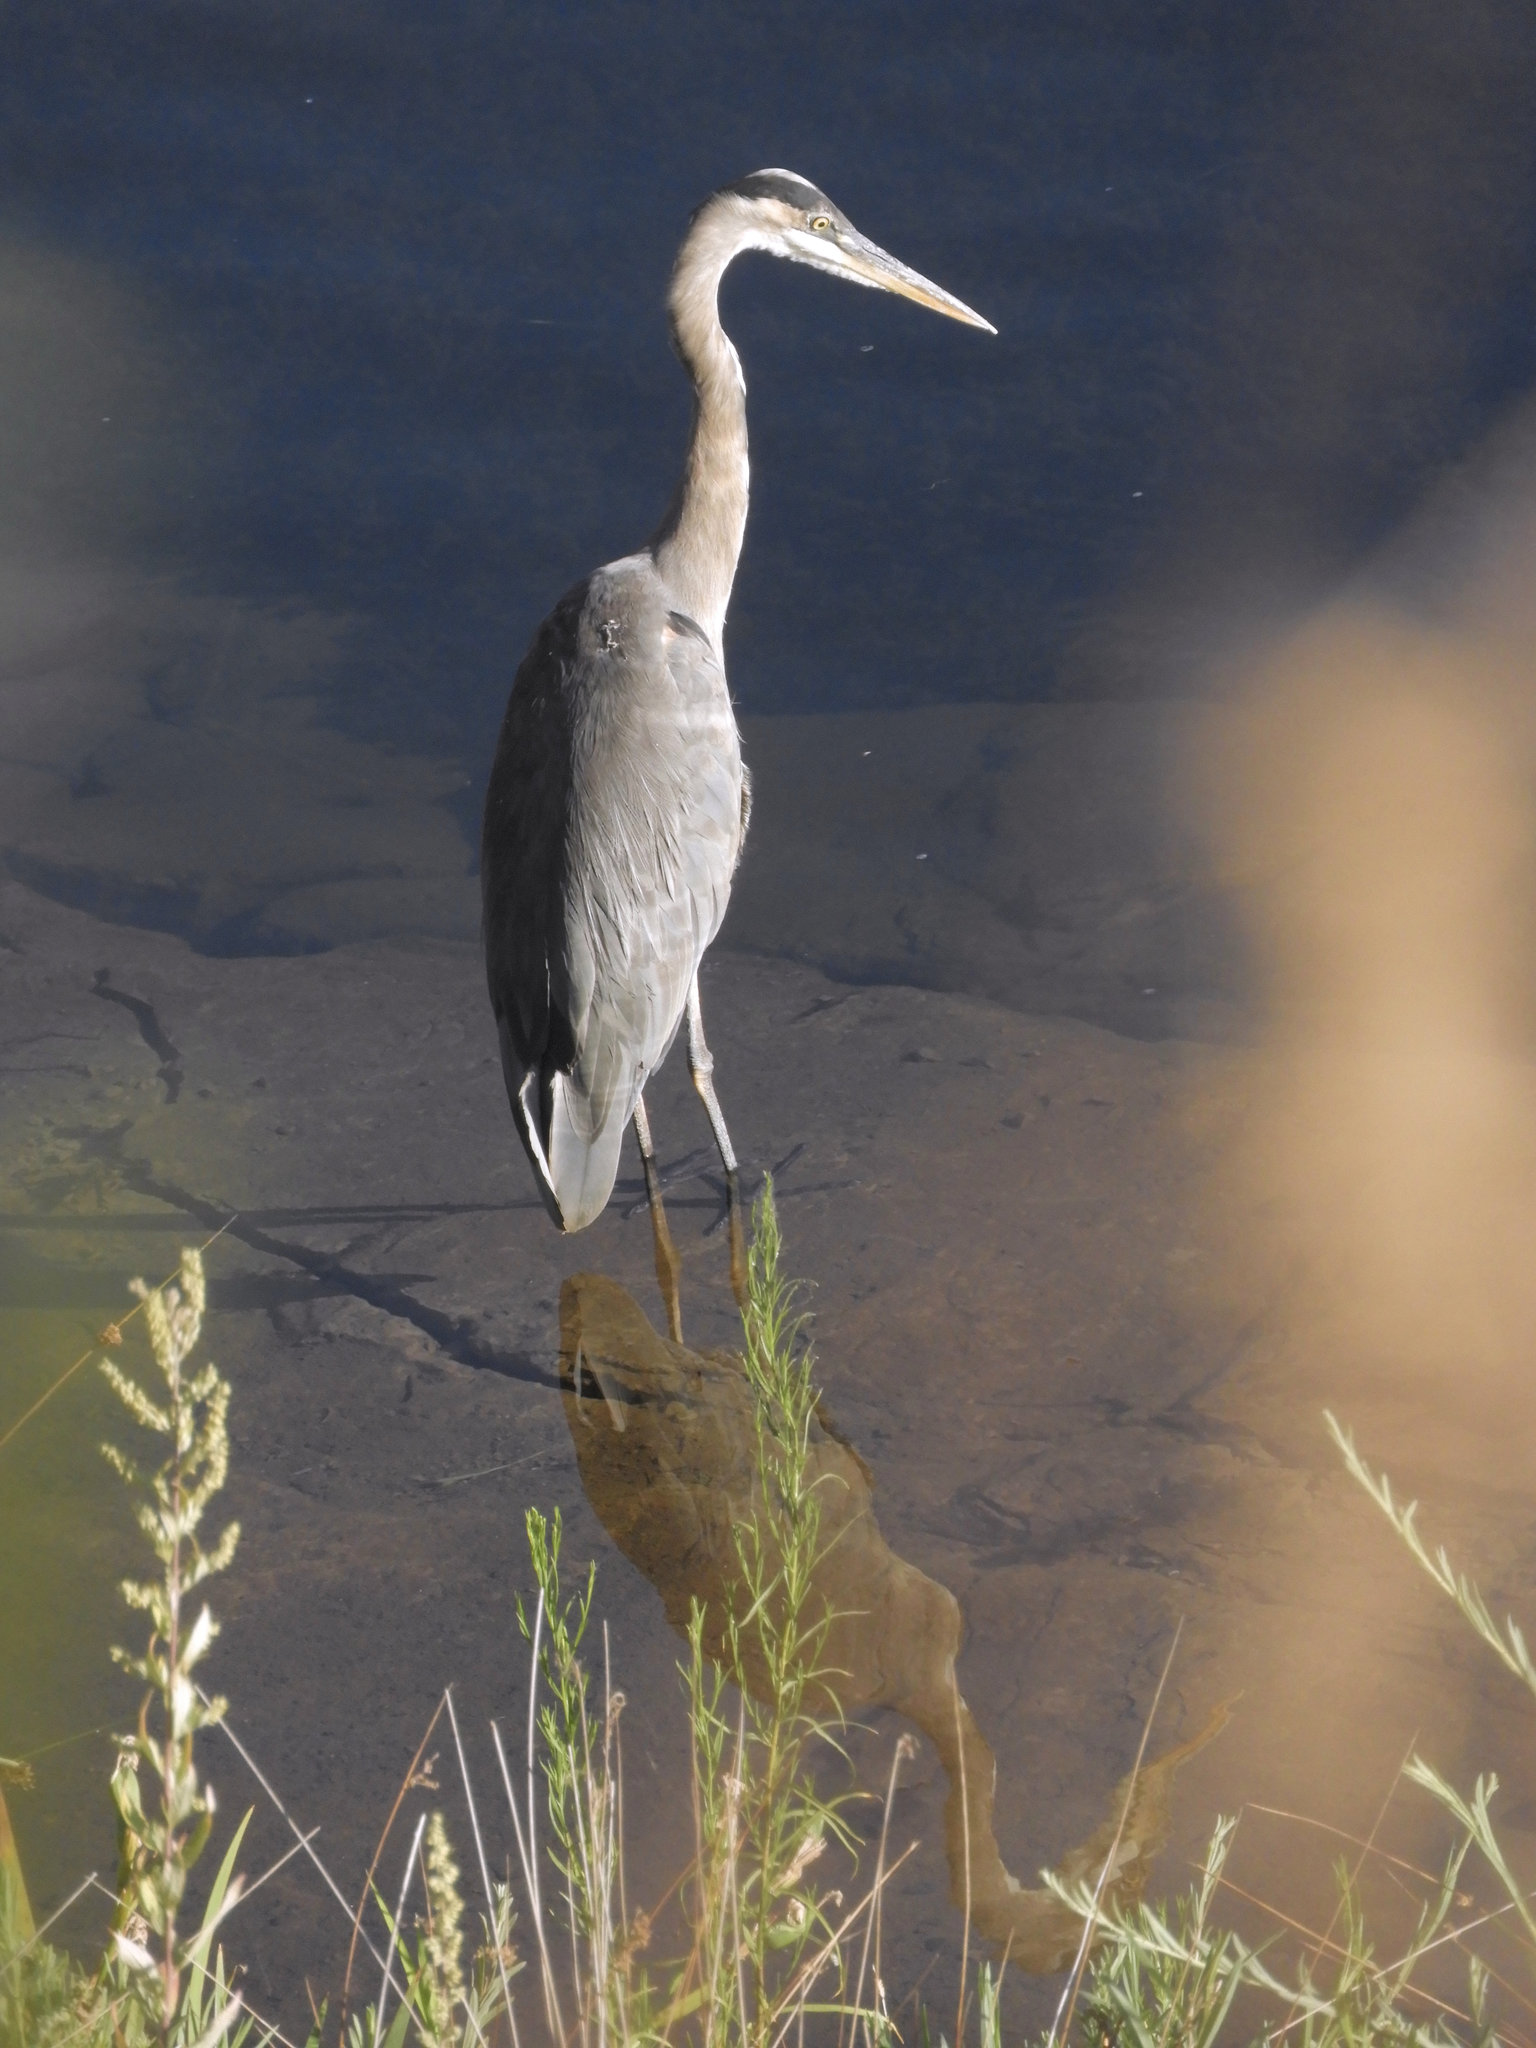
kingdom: Animalia
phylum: Chordata
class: Aves
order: Pelecaniformes
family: Ardeidae
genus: Ardea
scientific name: Ardea herodias
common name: Great blue heron
